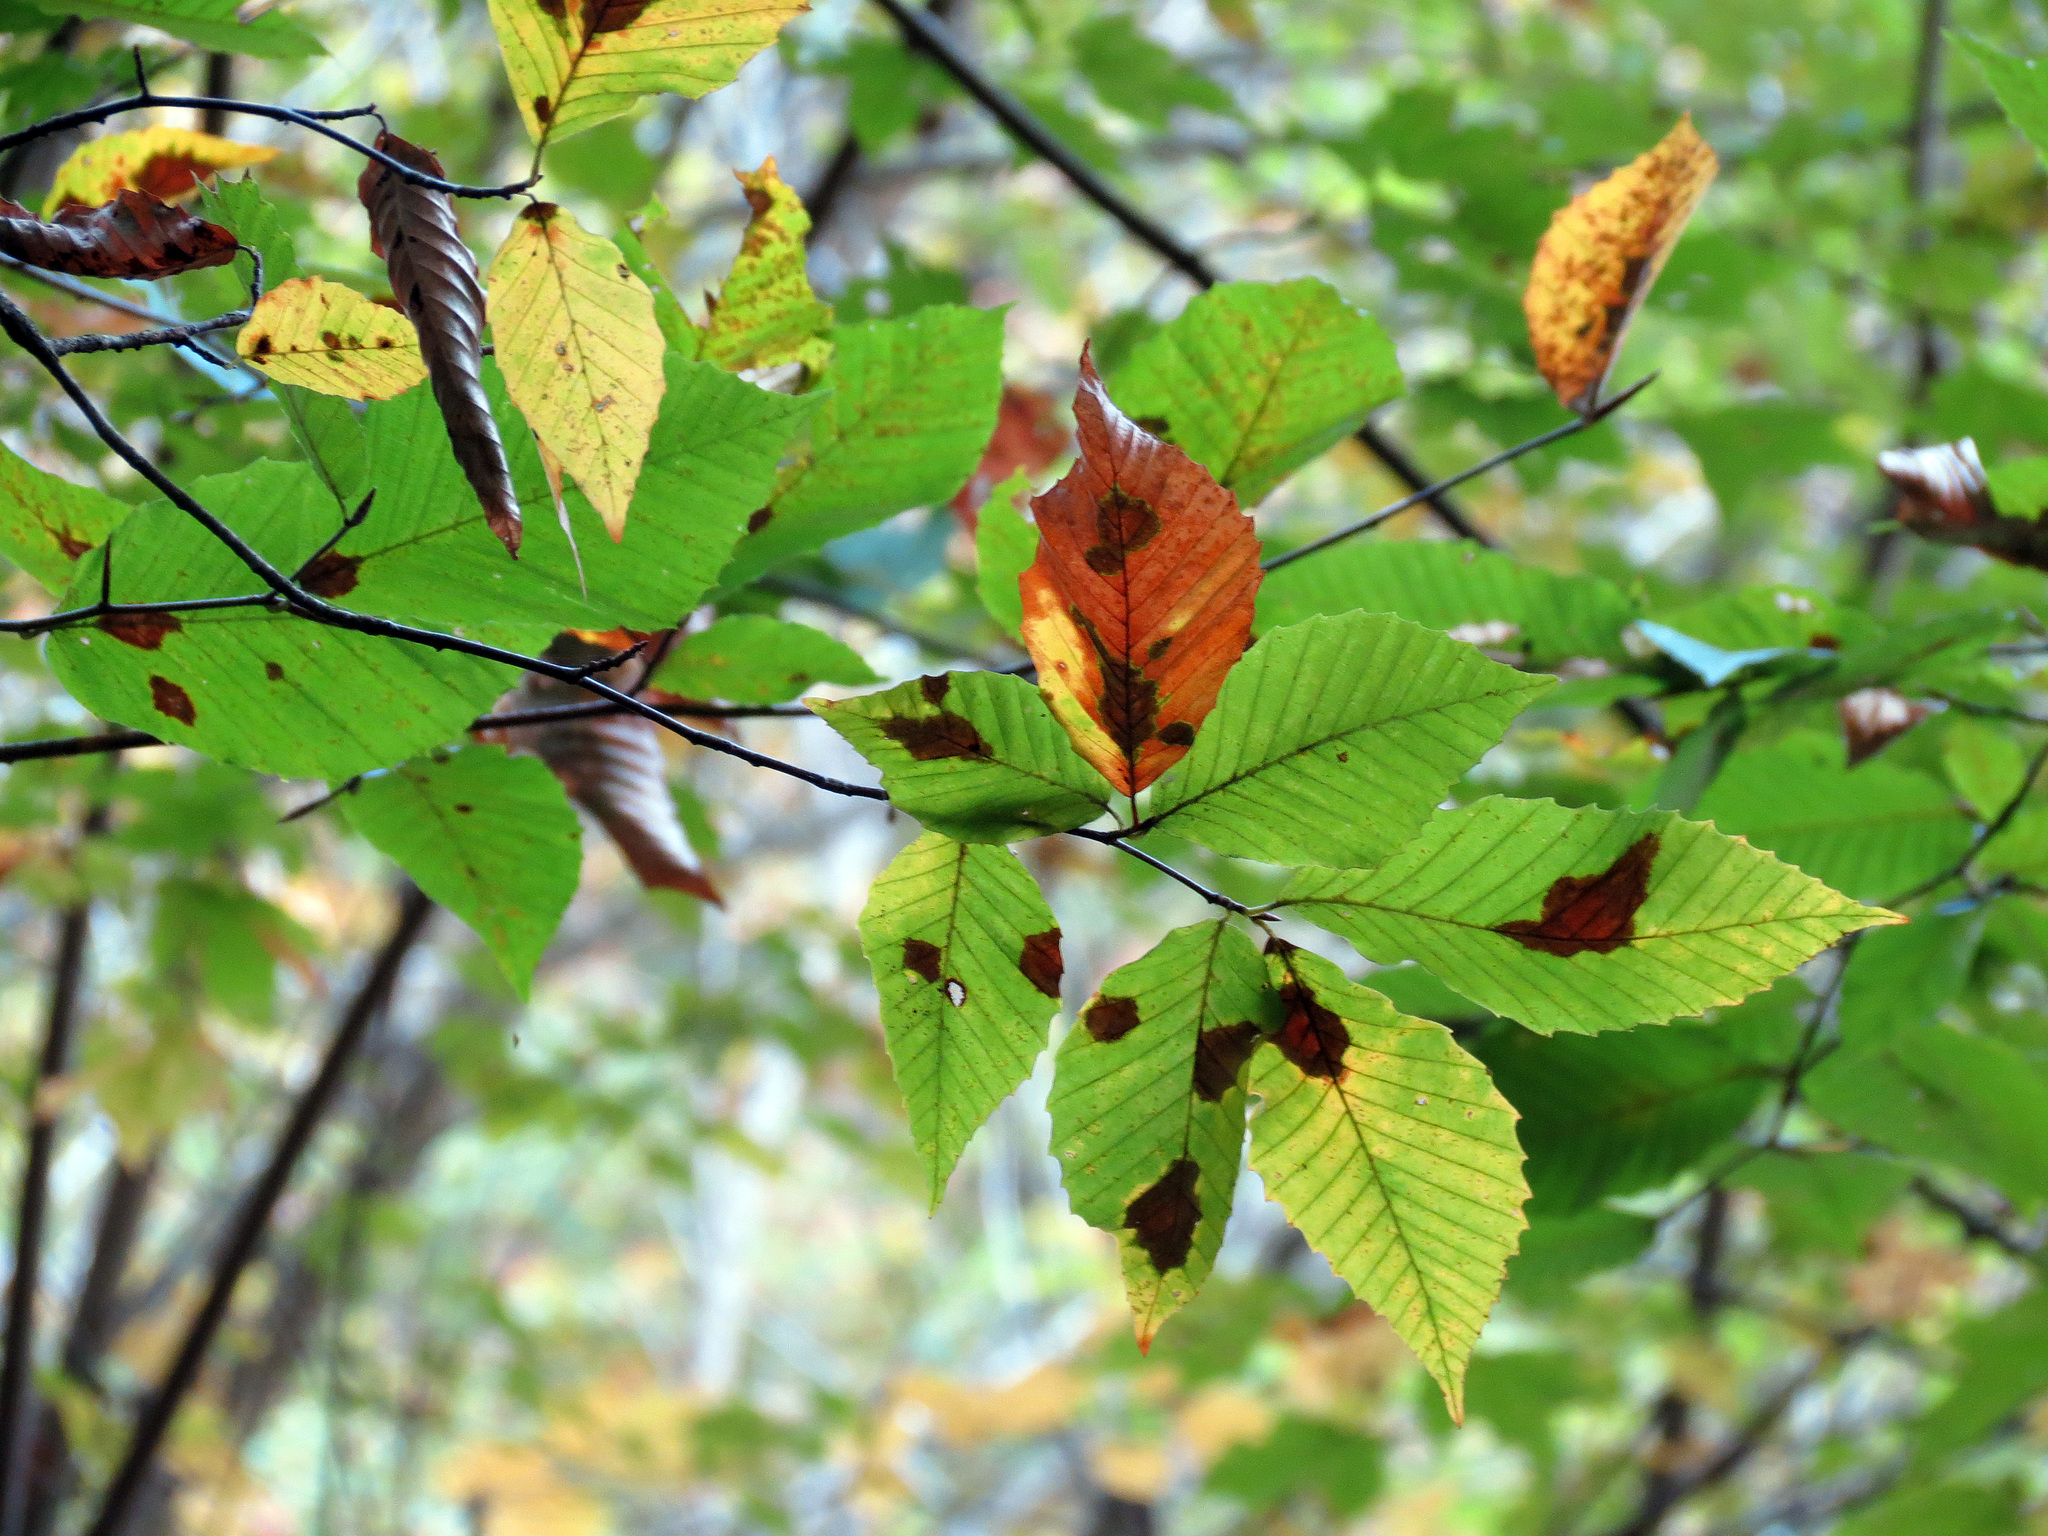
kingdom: Plantae
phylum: Tracheophyta
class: Magnoliopsida
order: Fagales
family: Fagaceae
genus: Fagus
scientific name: Fagus grandifolia
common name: American beech
